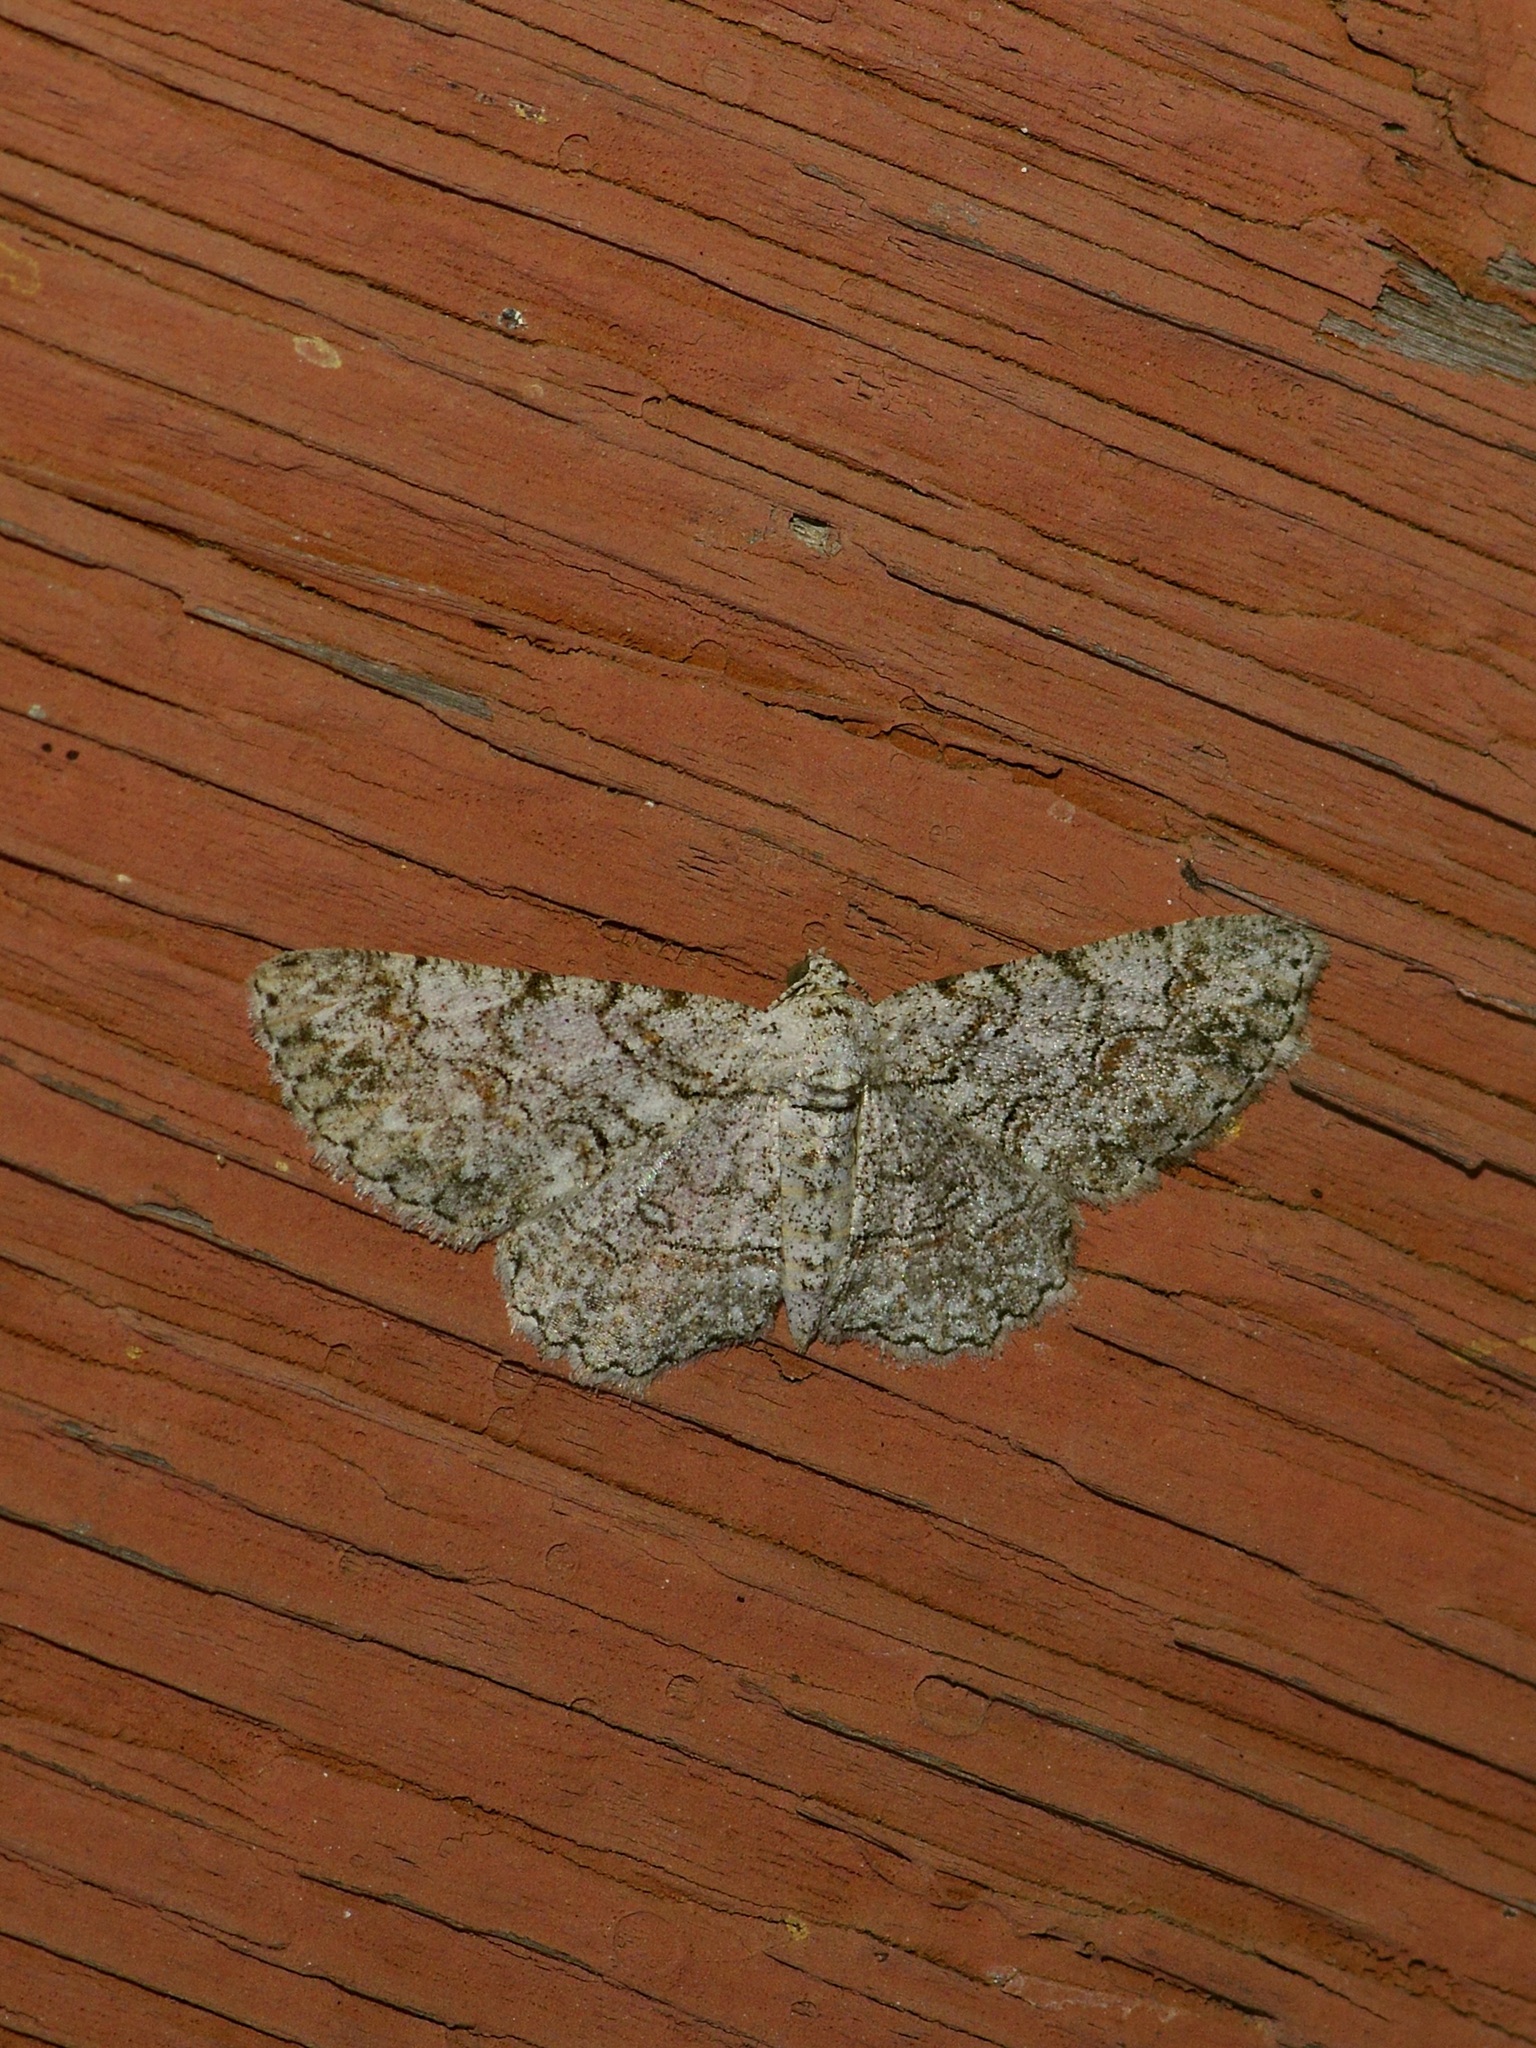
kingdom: Animalia
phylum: Arthropoda
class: Insecta
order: Lepidoptera
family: Geometridae
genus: Iridopsis
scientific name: Iridopsis defectaria
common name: Brown-shaded gray
